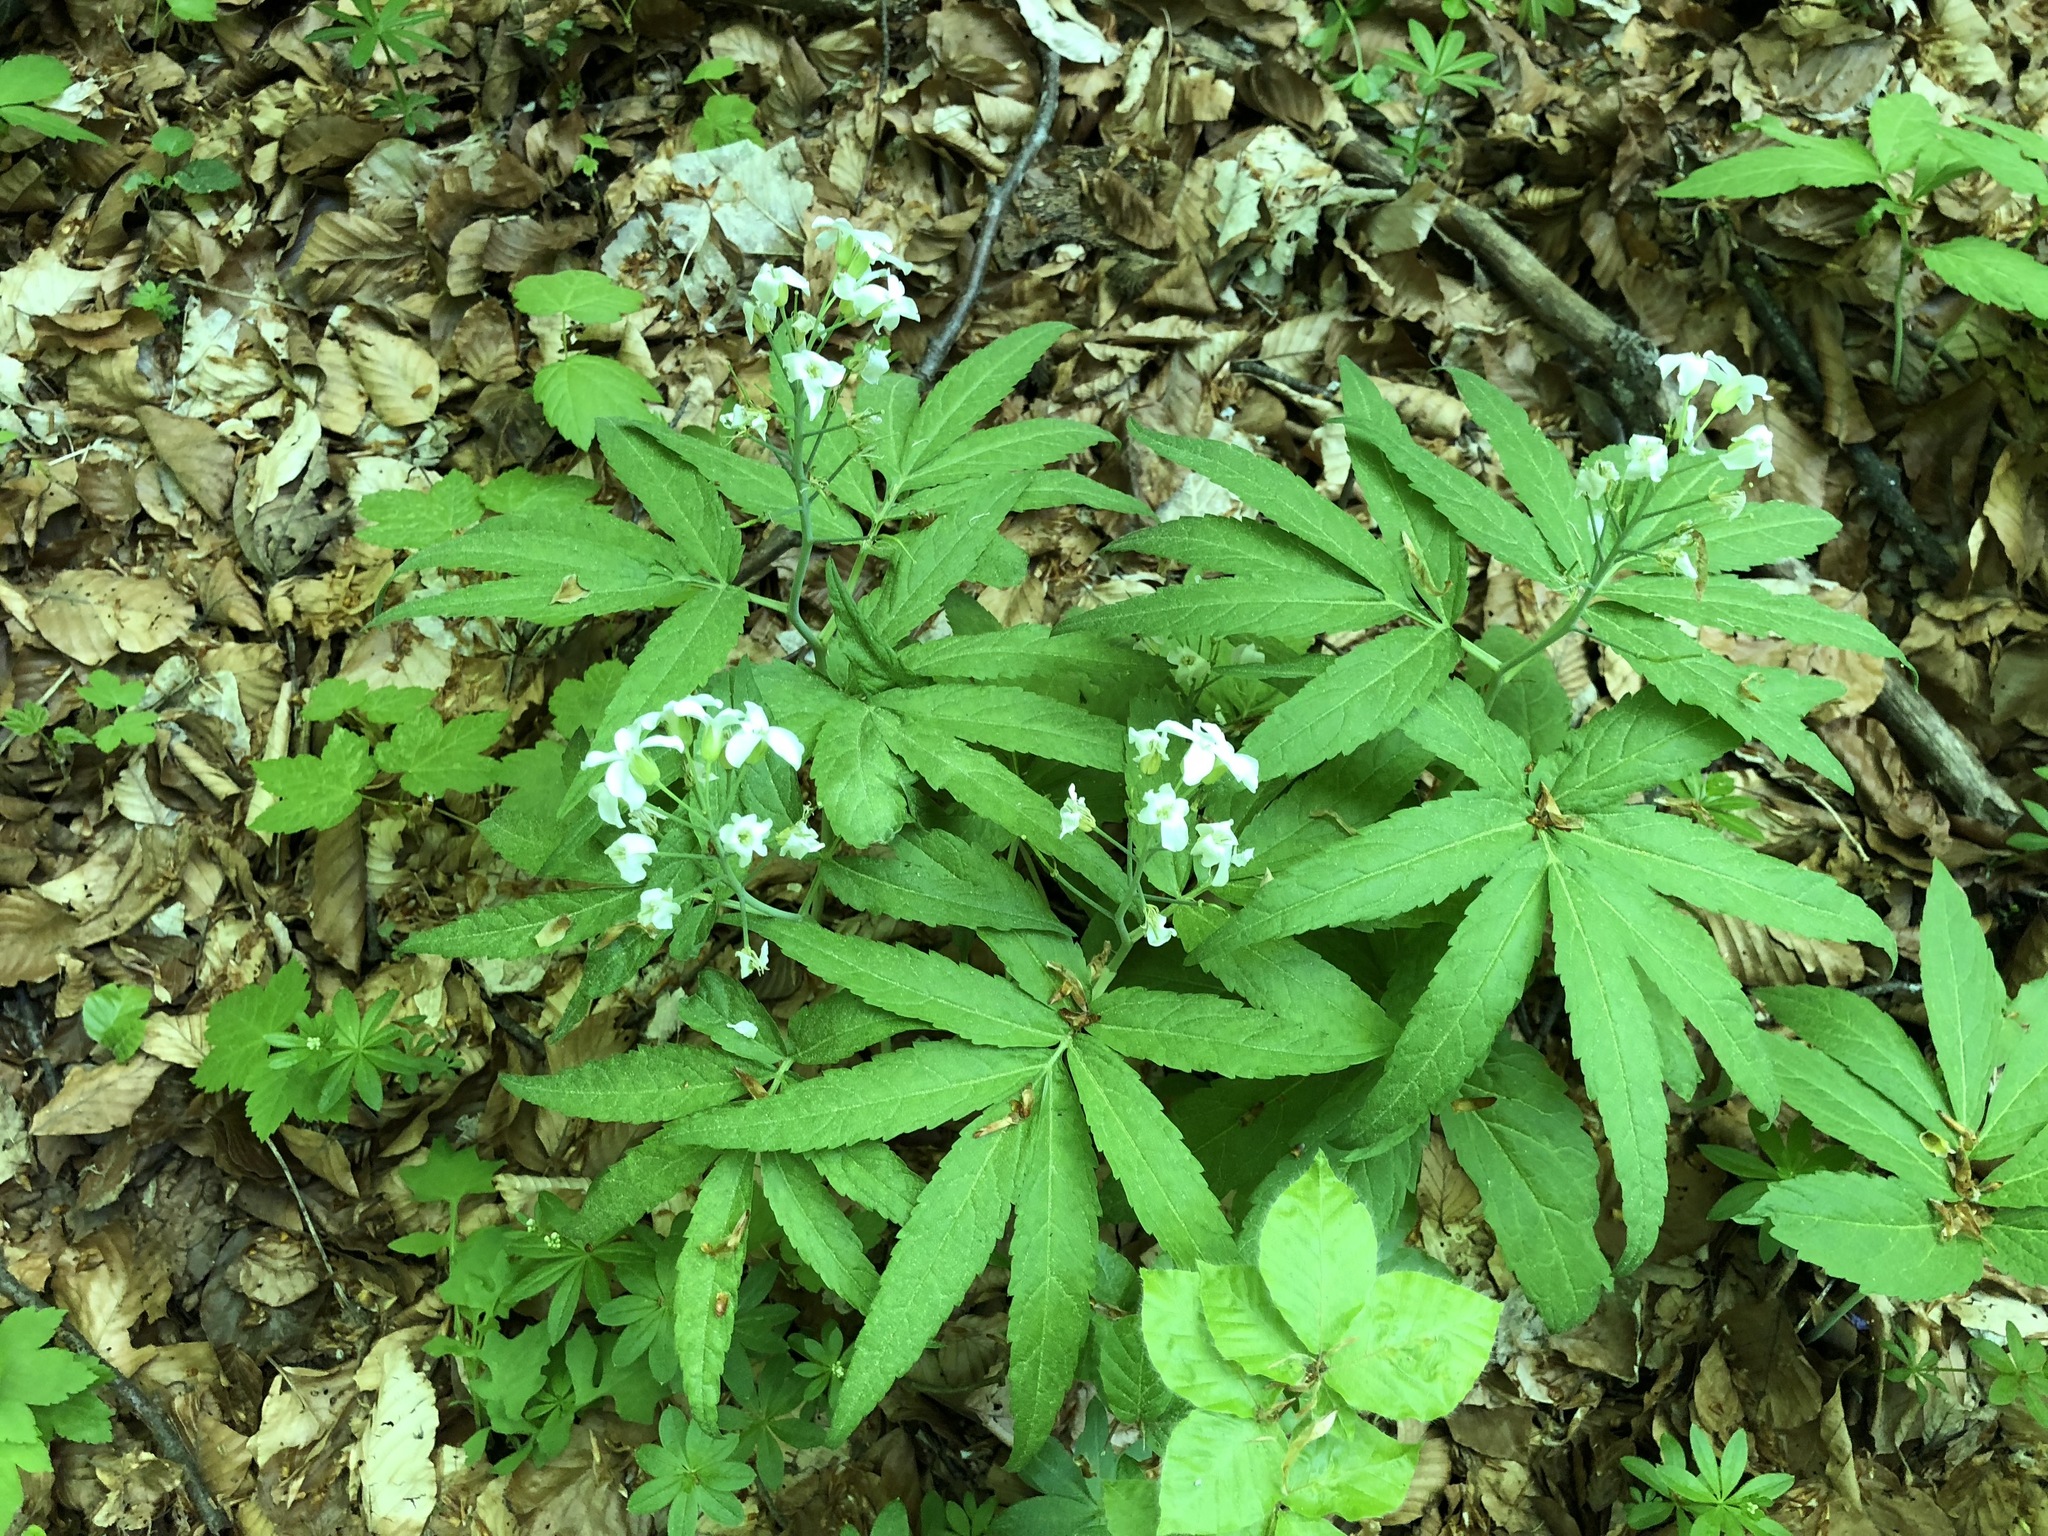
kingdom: Plantae
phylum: Tracheophyta
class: Magnoliopsida
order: Brassicales
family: Brassicaceae
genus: Cardamine
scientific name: Cardamine heptaphylla
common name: Pinnate coralroot
